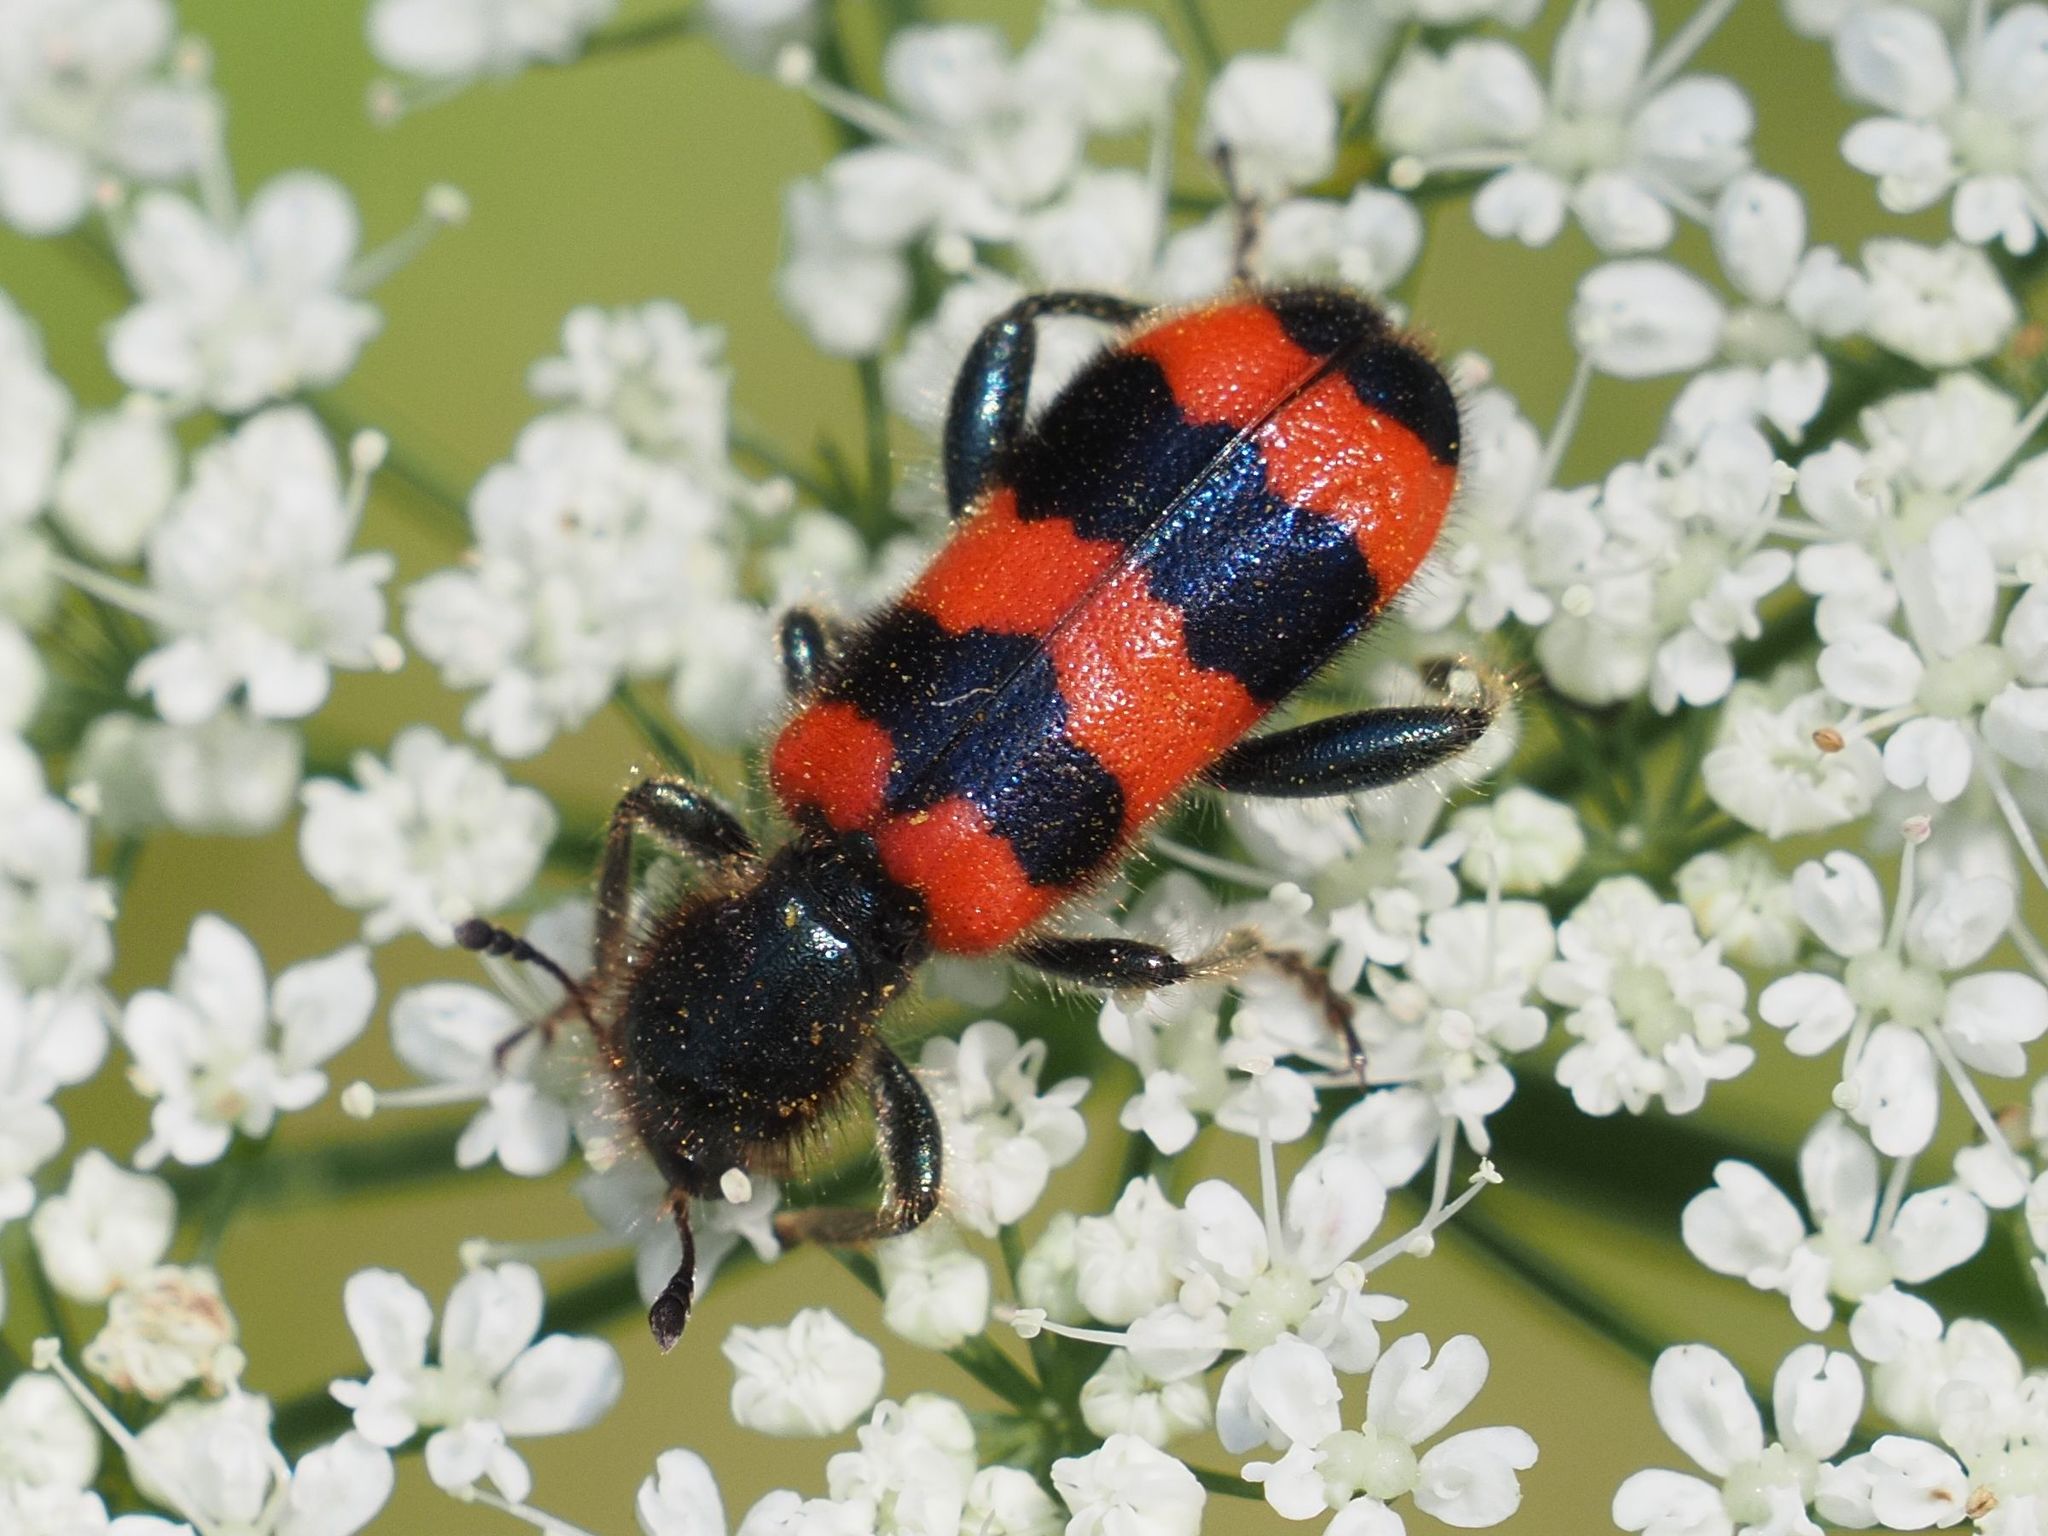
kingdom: Animalia
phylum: Arthropoda
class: Insecta
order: Coleoptera
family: Cleridae
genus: Trichodes
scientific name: Trichodes apiarius
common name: Bee-eating beetle
